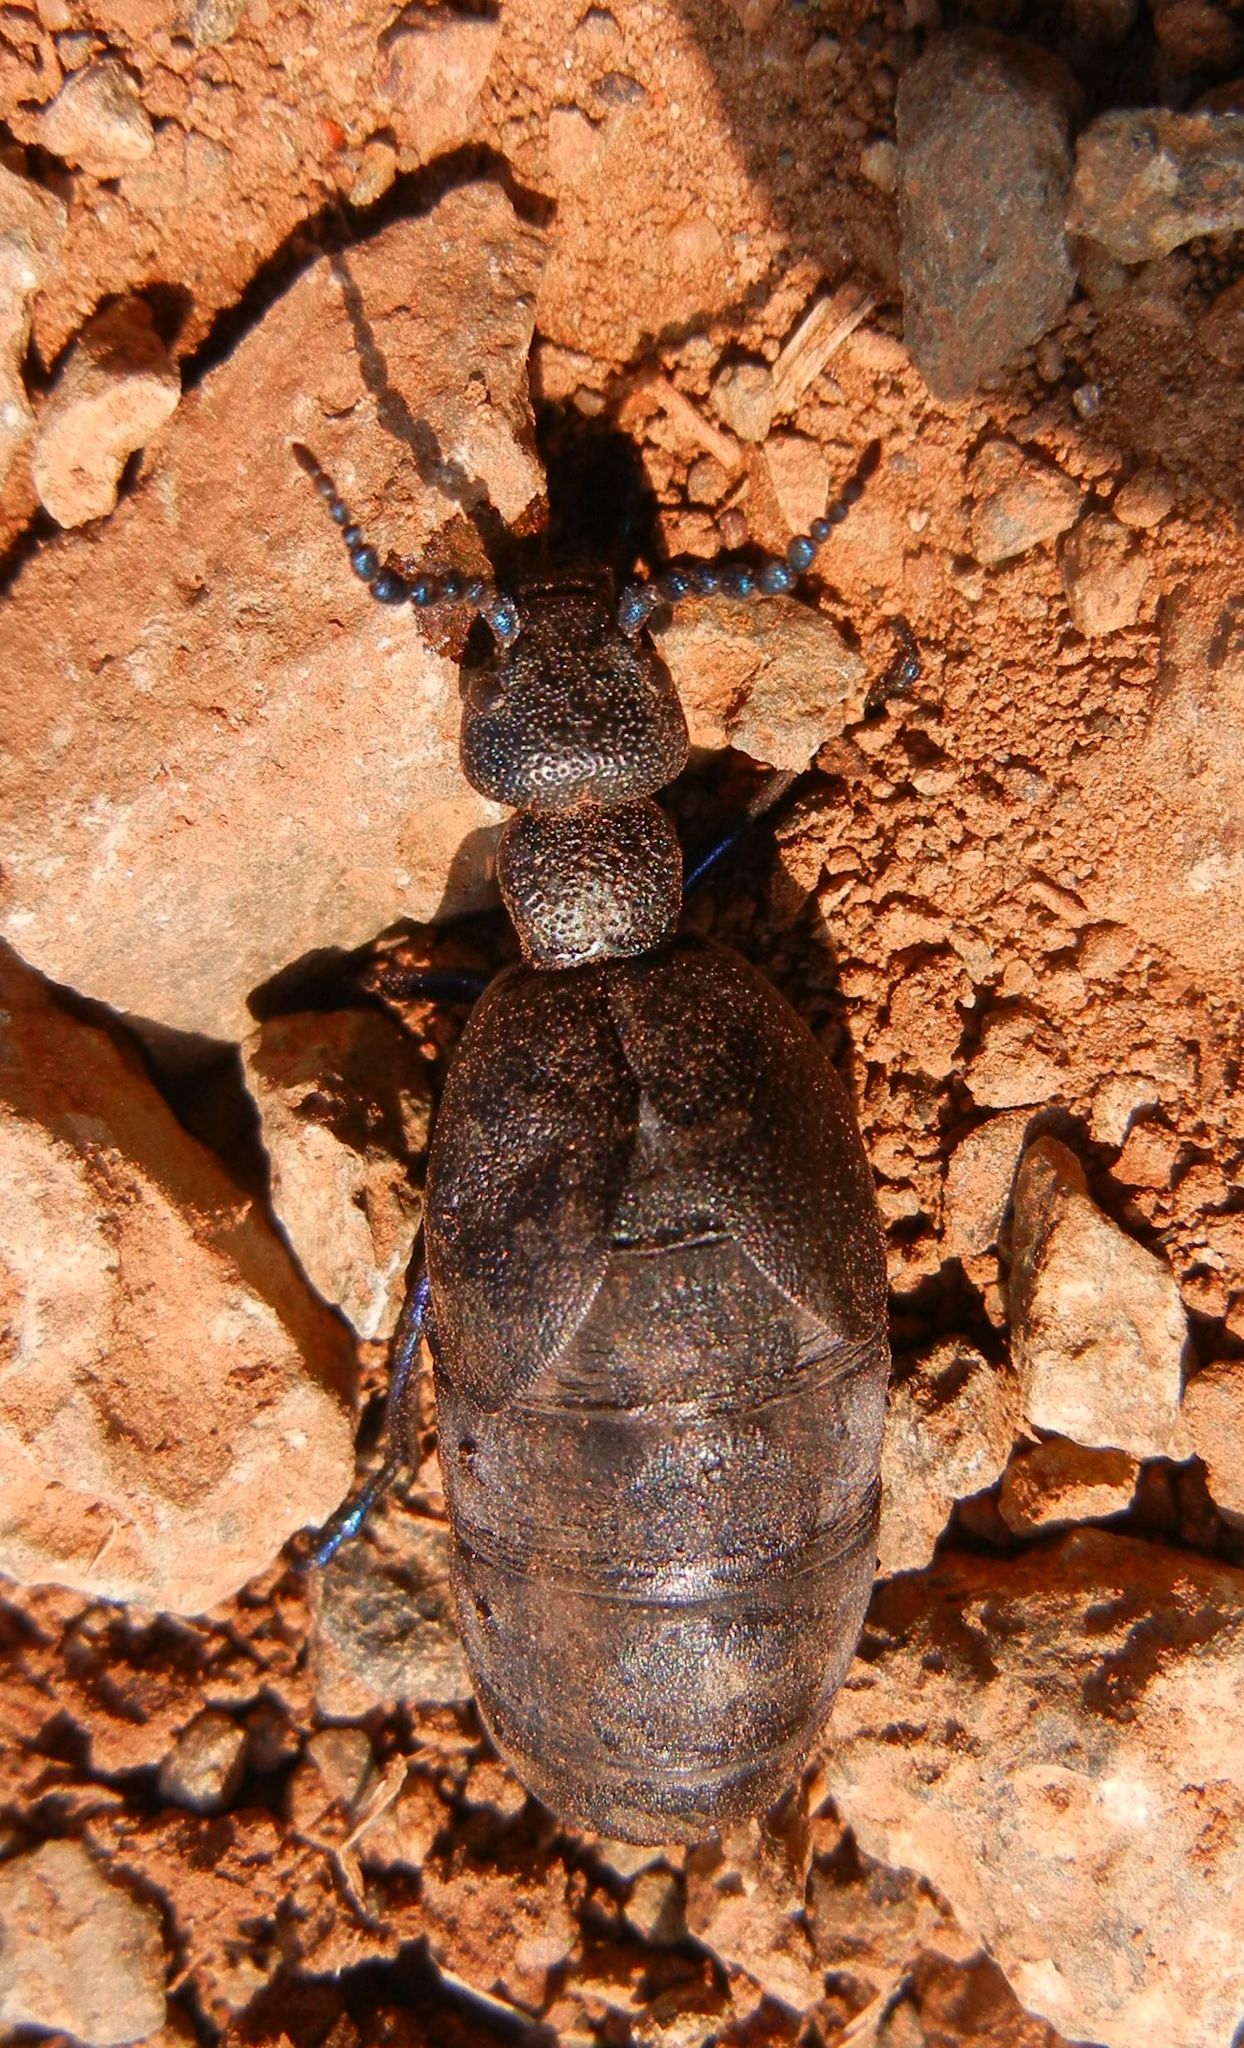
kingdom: Animalia
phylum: Arthropoda
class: Insecta
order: Coleoptera
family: Meloidae
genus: Meloe
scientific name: Meloe proscarabaeus
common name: Black oil-beetle
